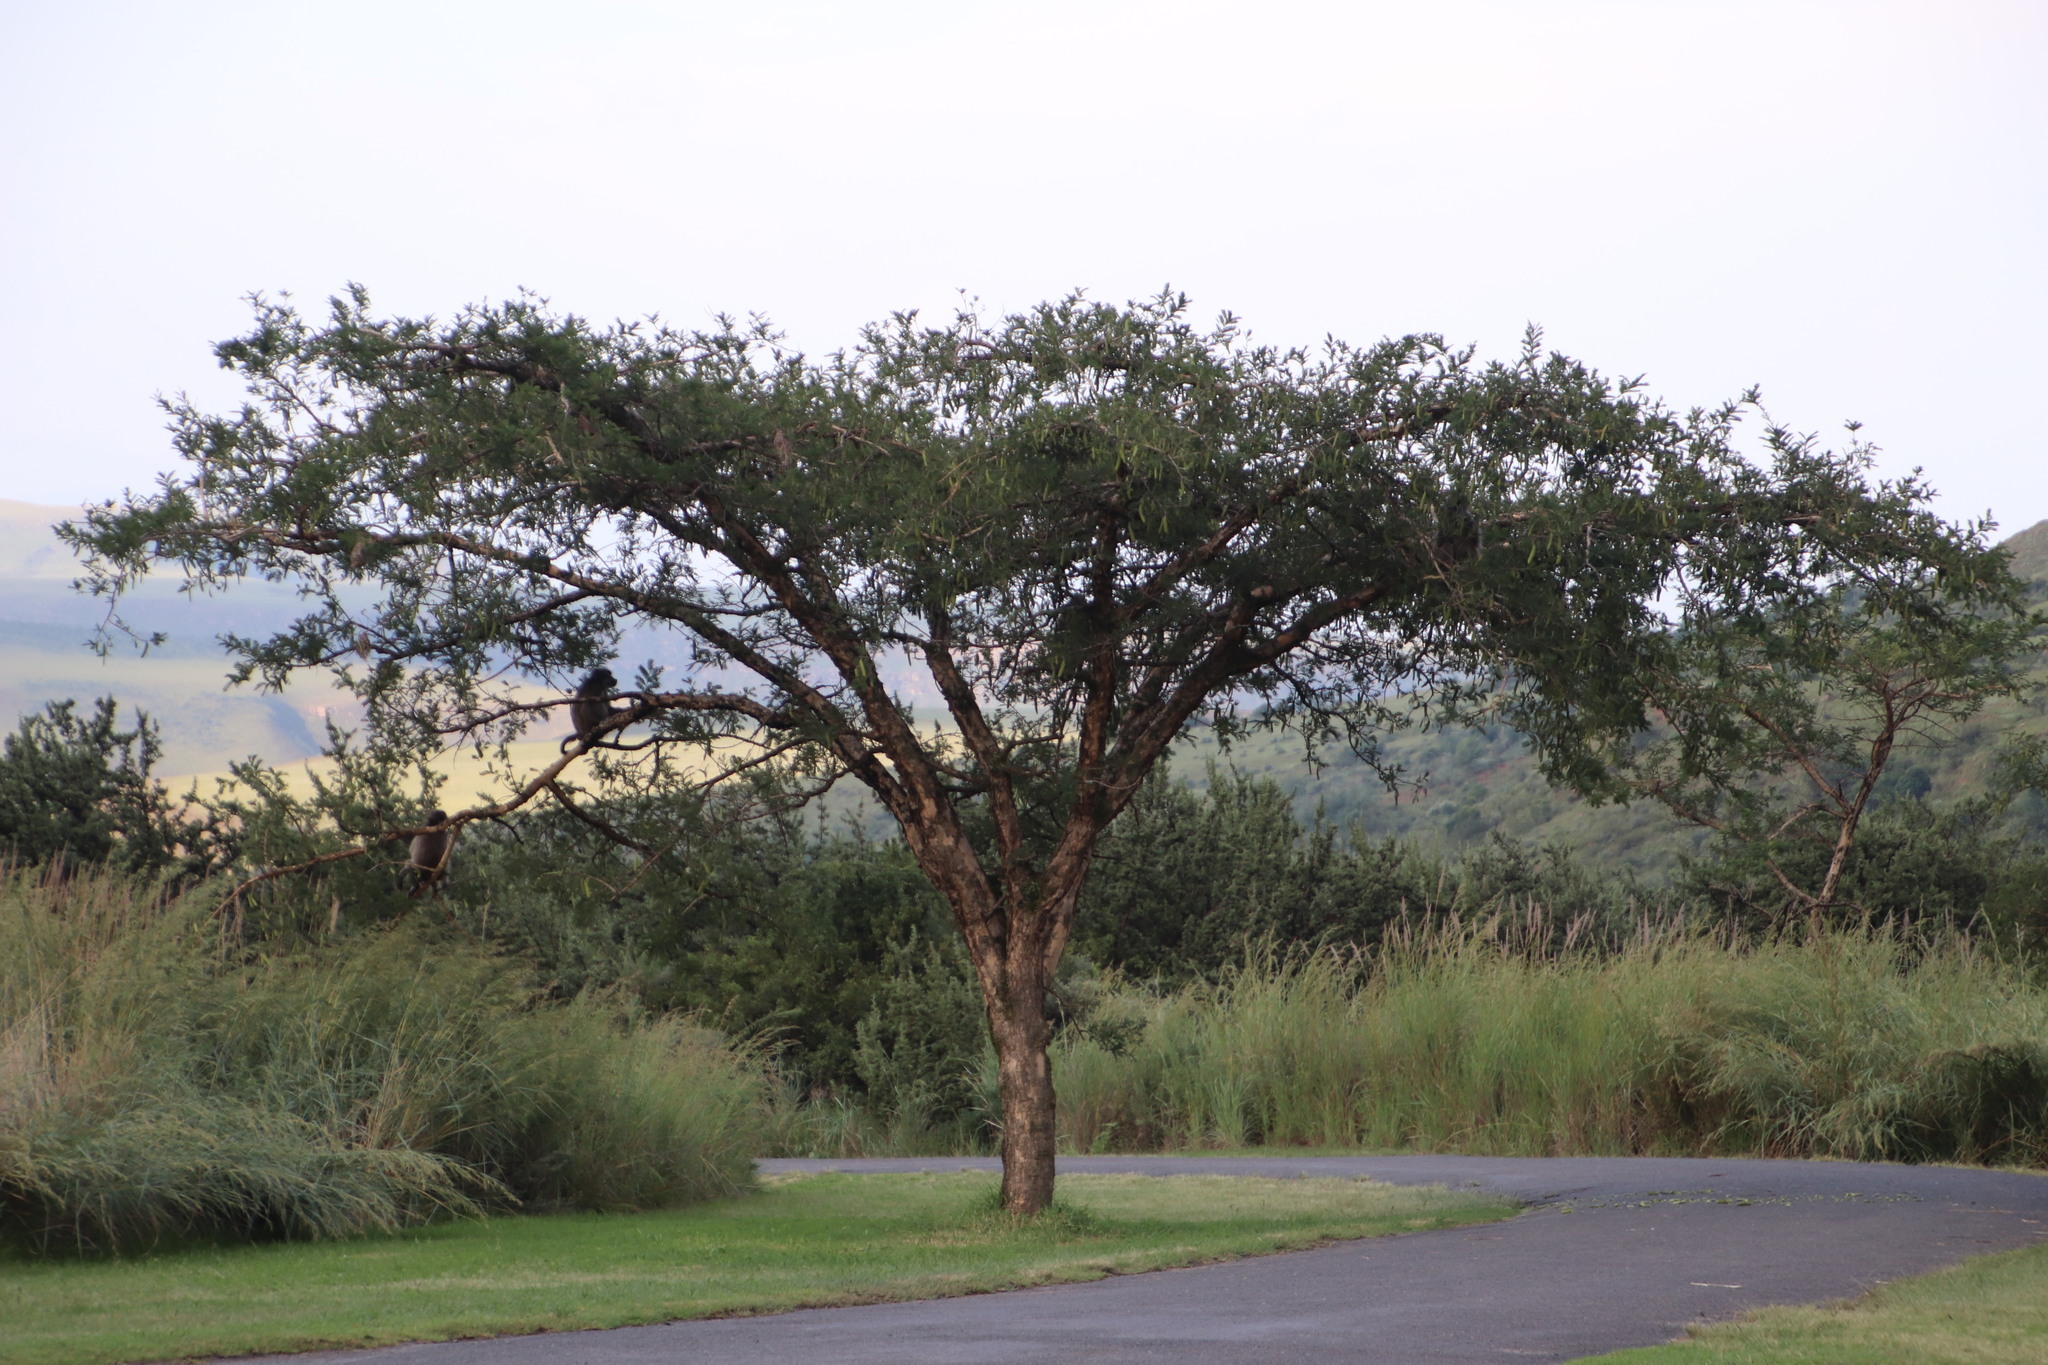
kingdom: Plantae
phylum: Tracheophyta
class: Magnoliopsida
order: Fabales
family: Fabaceae
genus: Vachellia
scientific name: Vachellia sieberiana
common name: Flat-topped thorn
